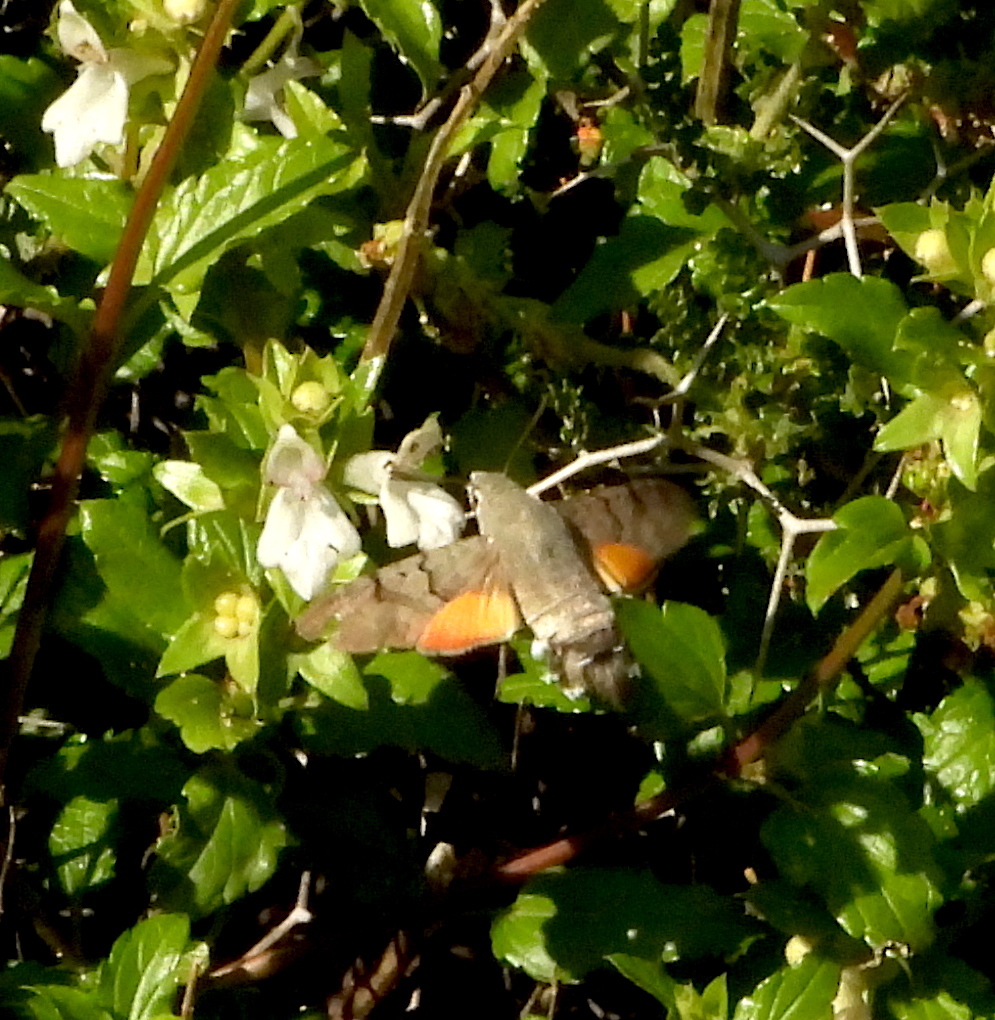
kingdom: Animalia
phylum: Arthropoda
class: Insecta
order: Lepidoptera
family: Sphingidae
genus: Macroglossum
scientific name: Macroglossum stellatarum
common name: Humming-bird hawk-moth
